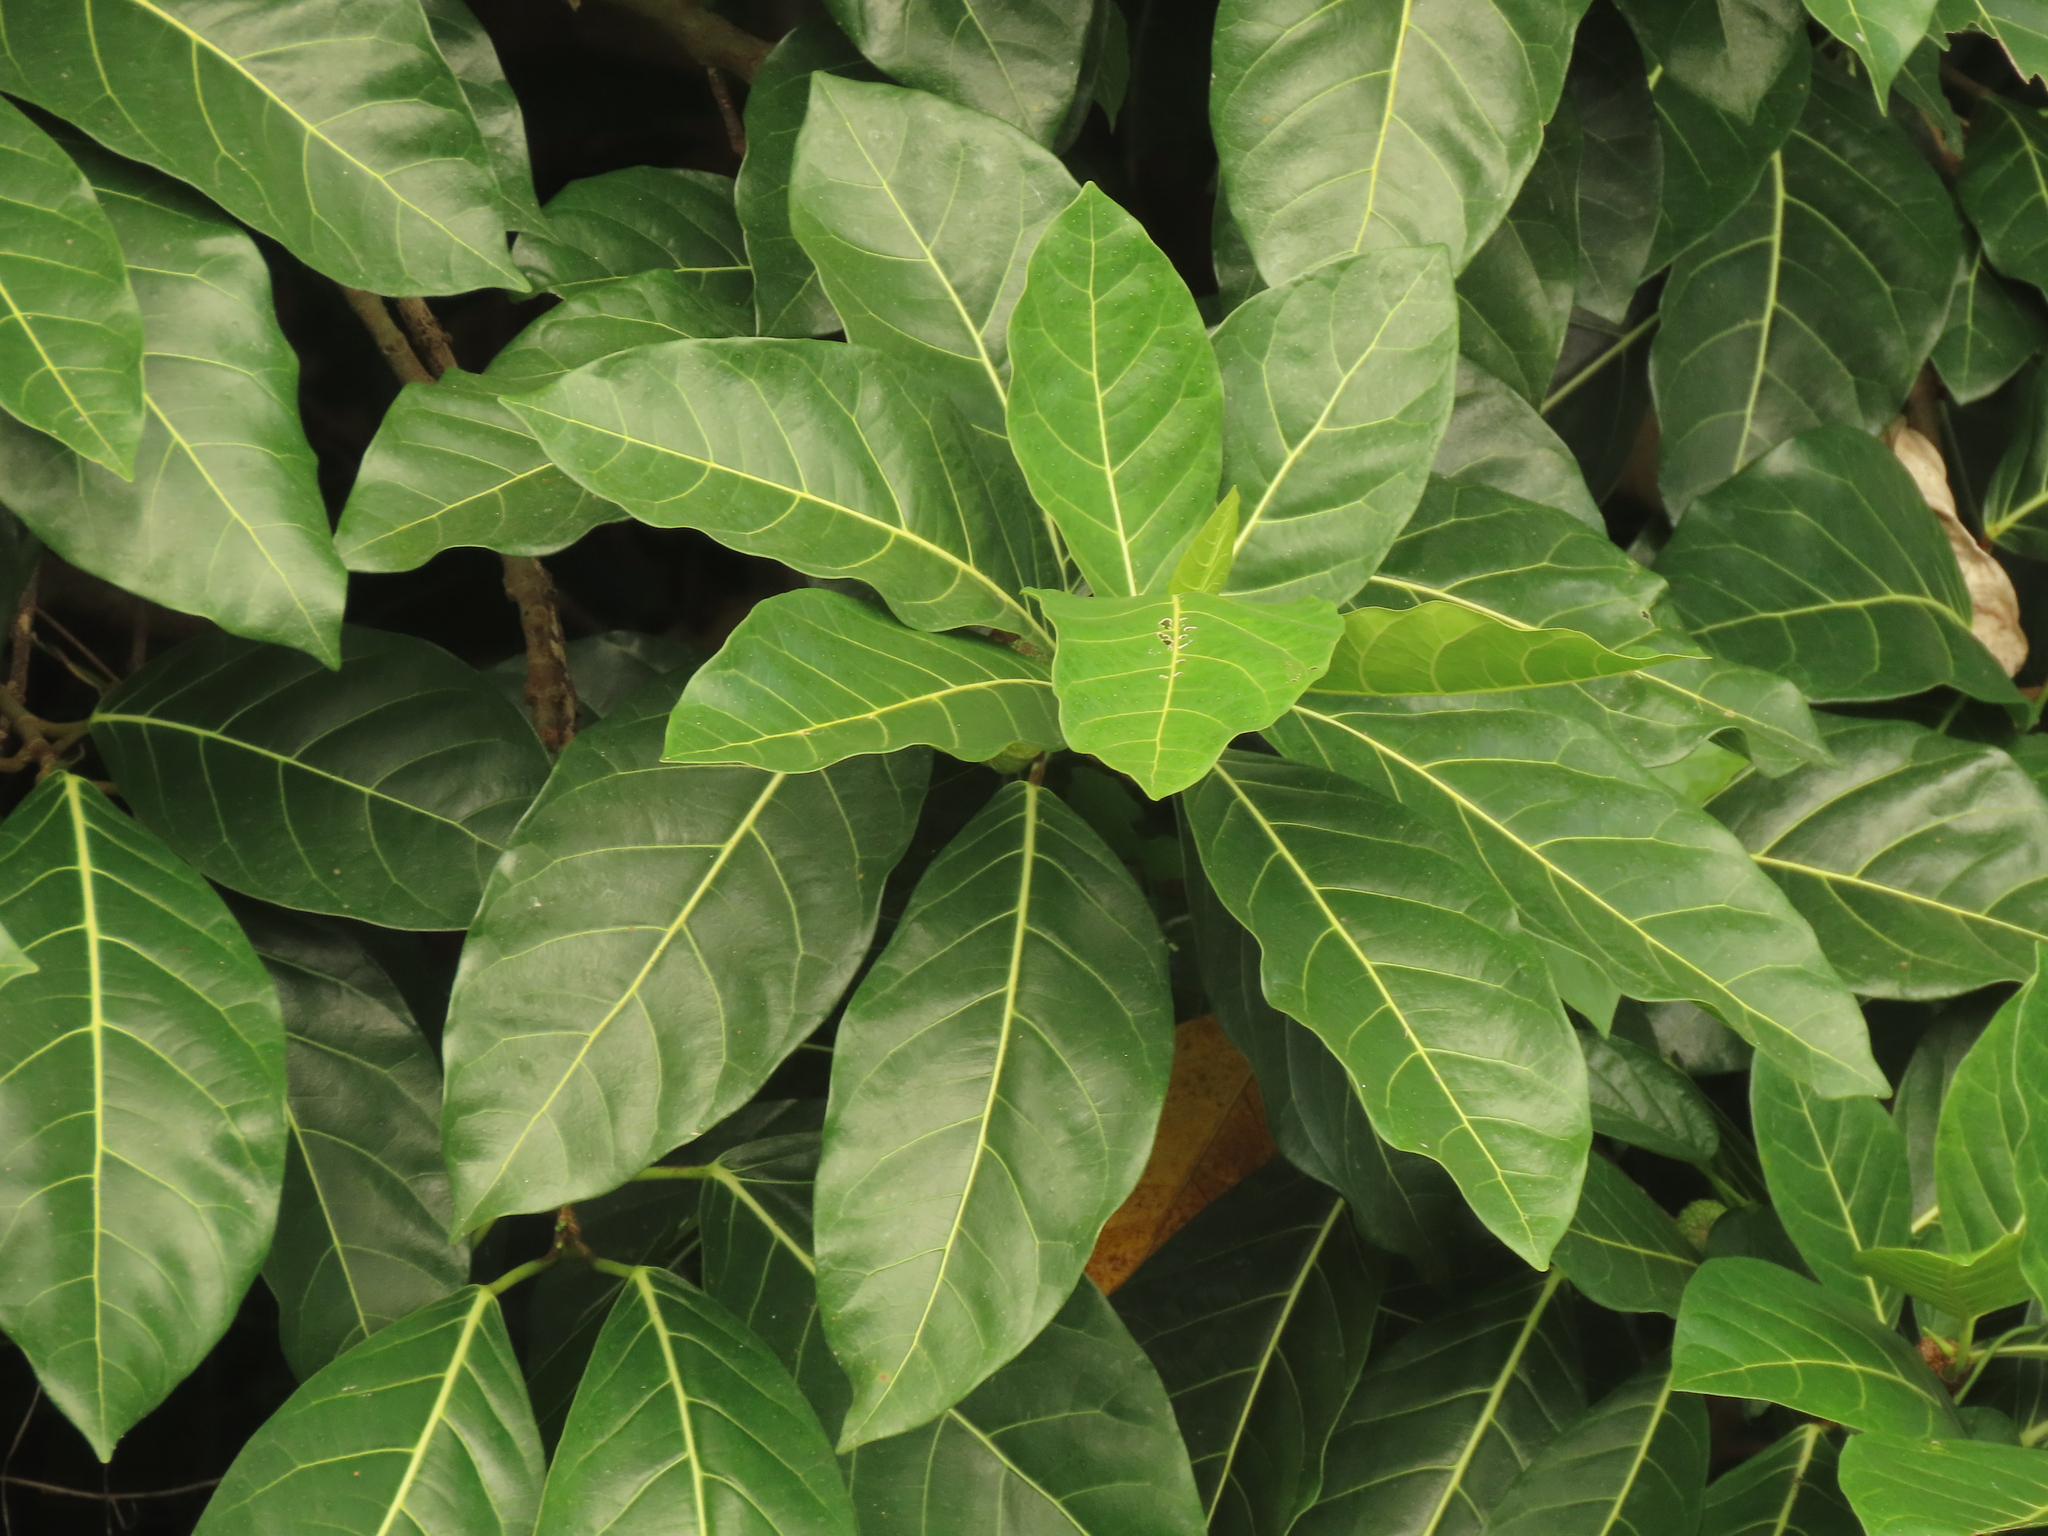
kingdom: Plantae
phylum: Tracheophyta
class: Magnoliopsida
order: Rosales
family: Moraceae
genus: Ficus
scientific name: Ficus septica
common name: Septic fig
